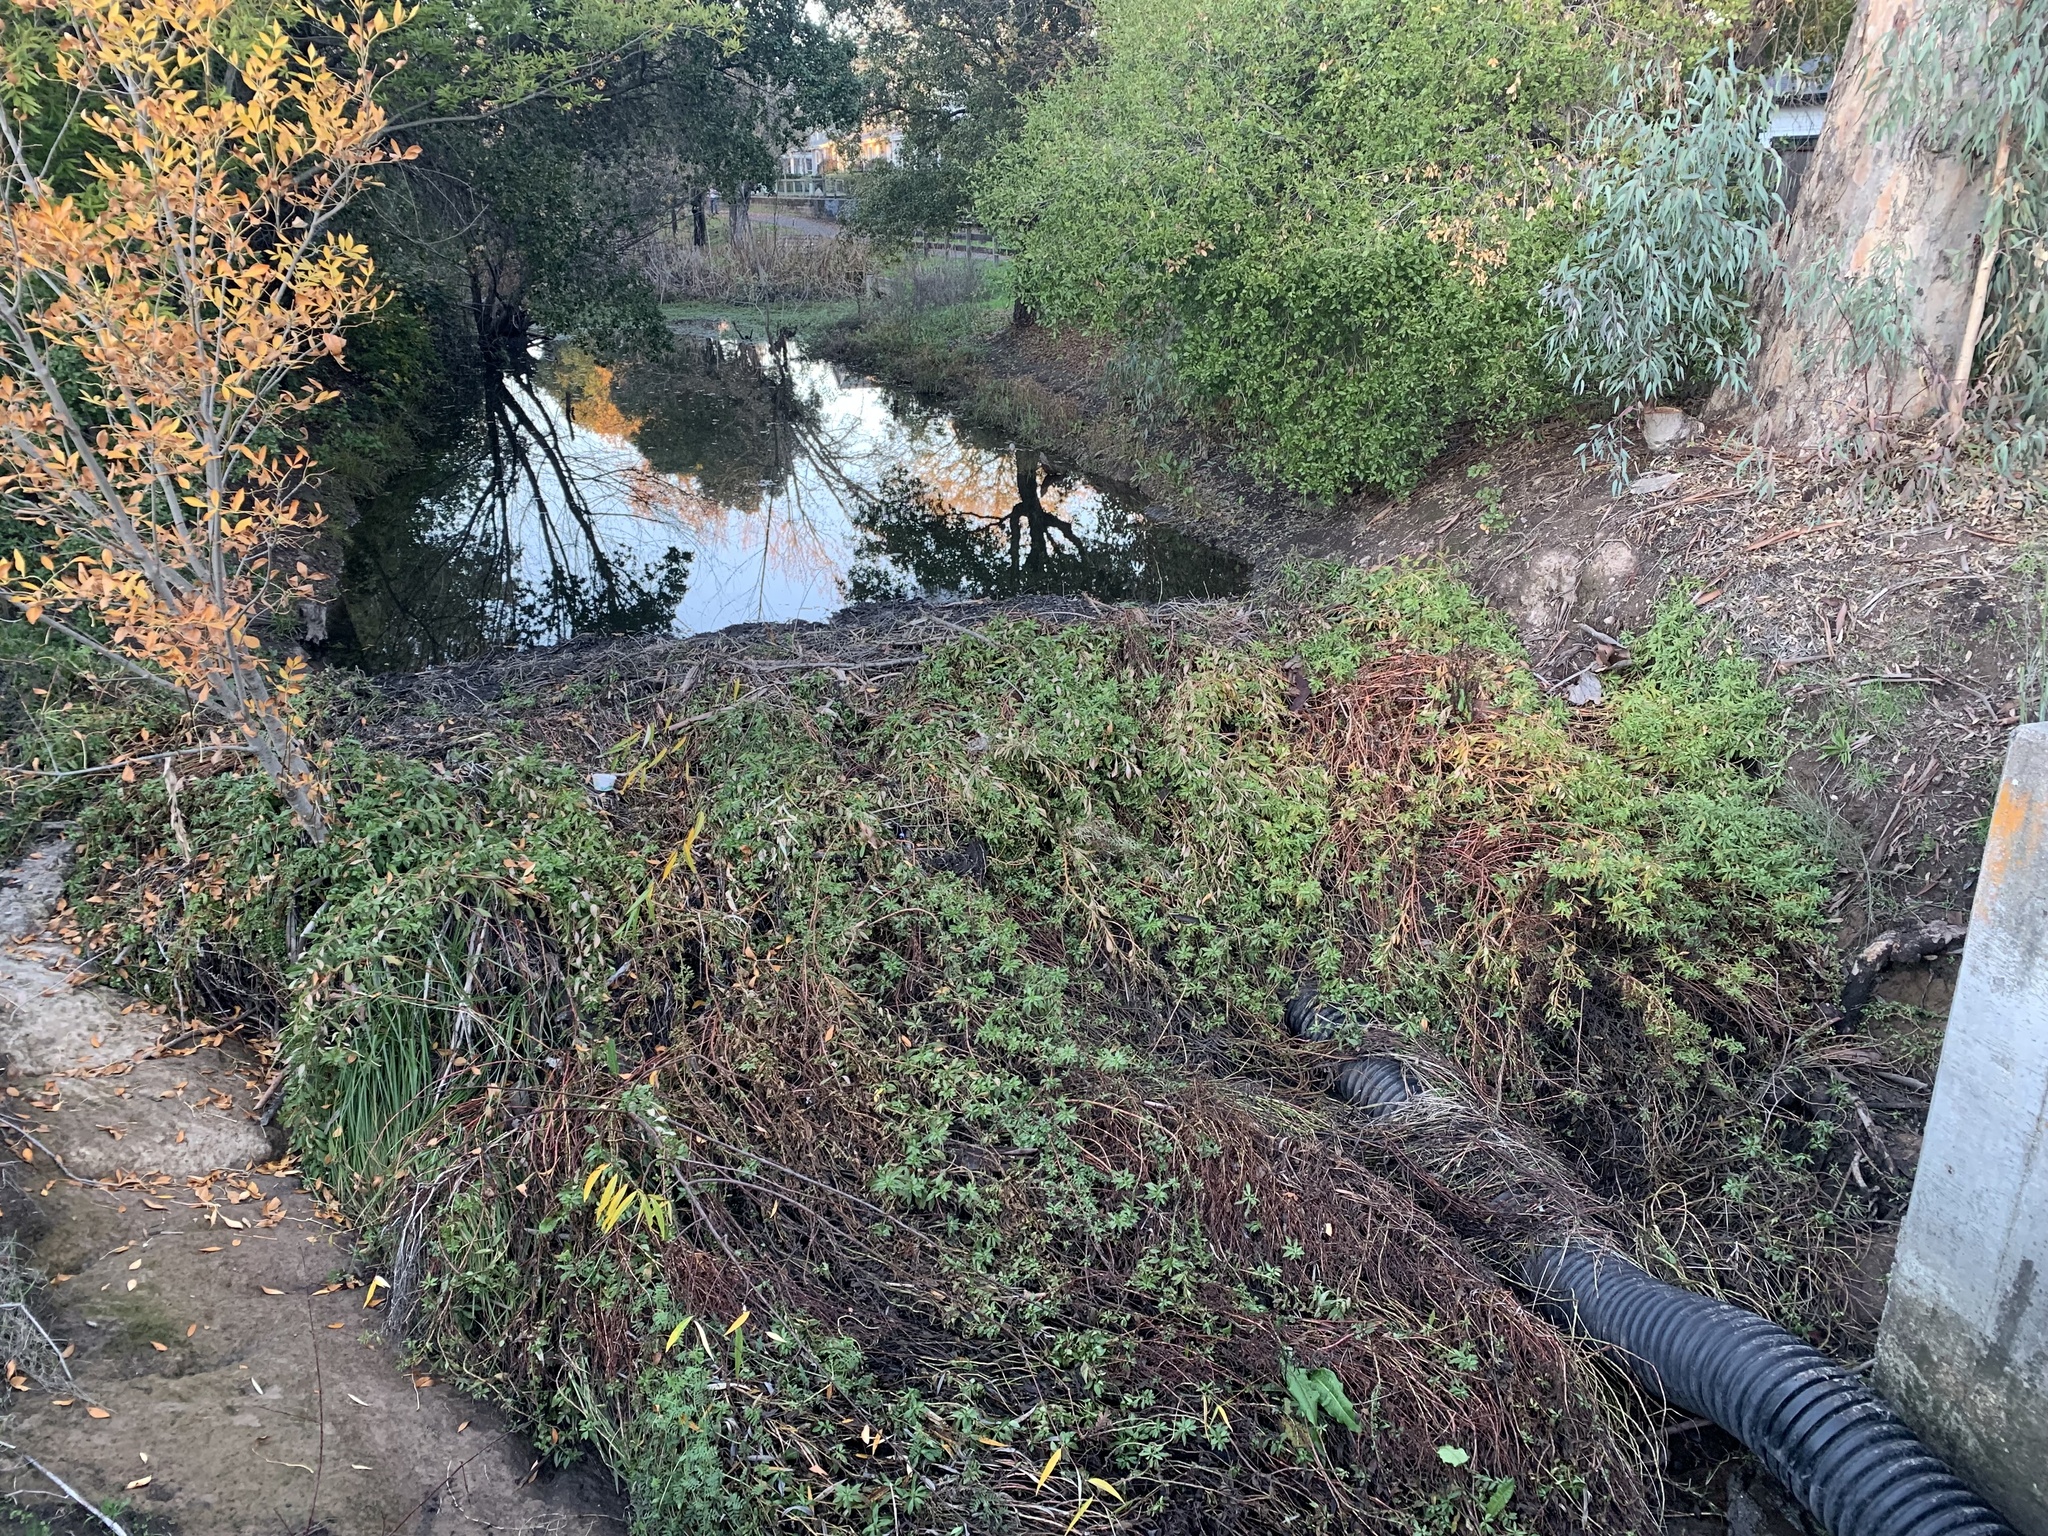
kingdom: Animalia
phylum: Chordata
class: Mammalia
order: Rodentia
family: Castoridae
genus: Castor
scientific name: Castor canadensis
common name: American beaver
